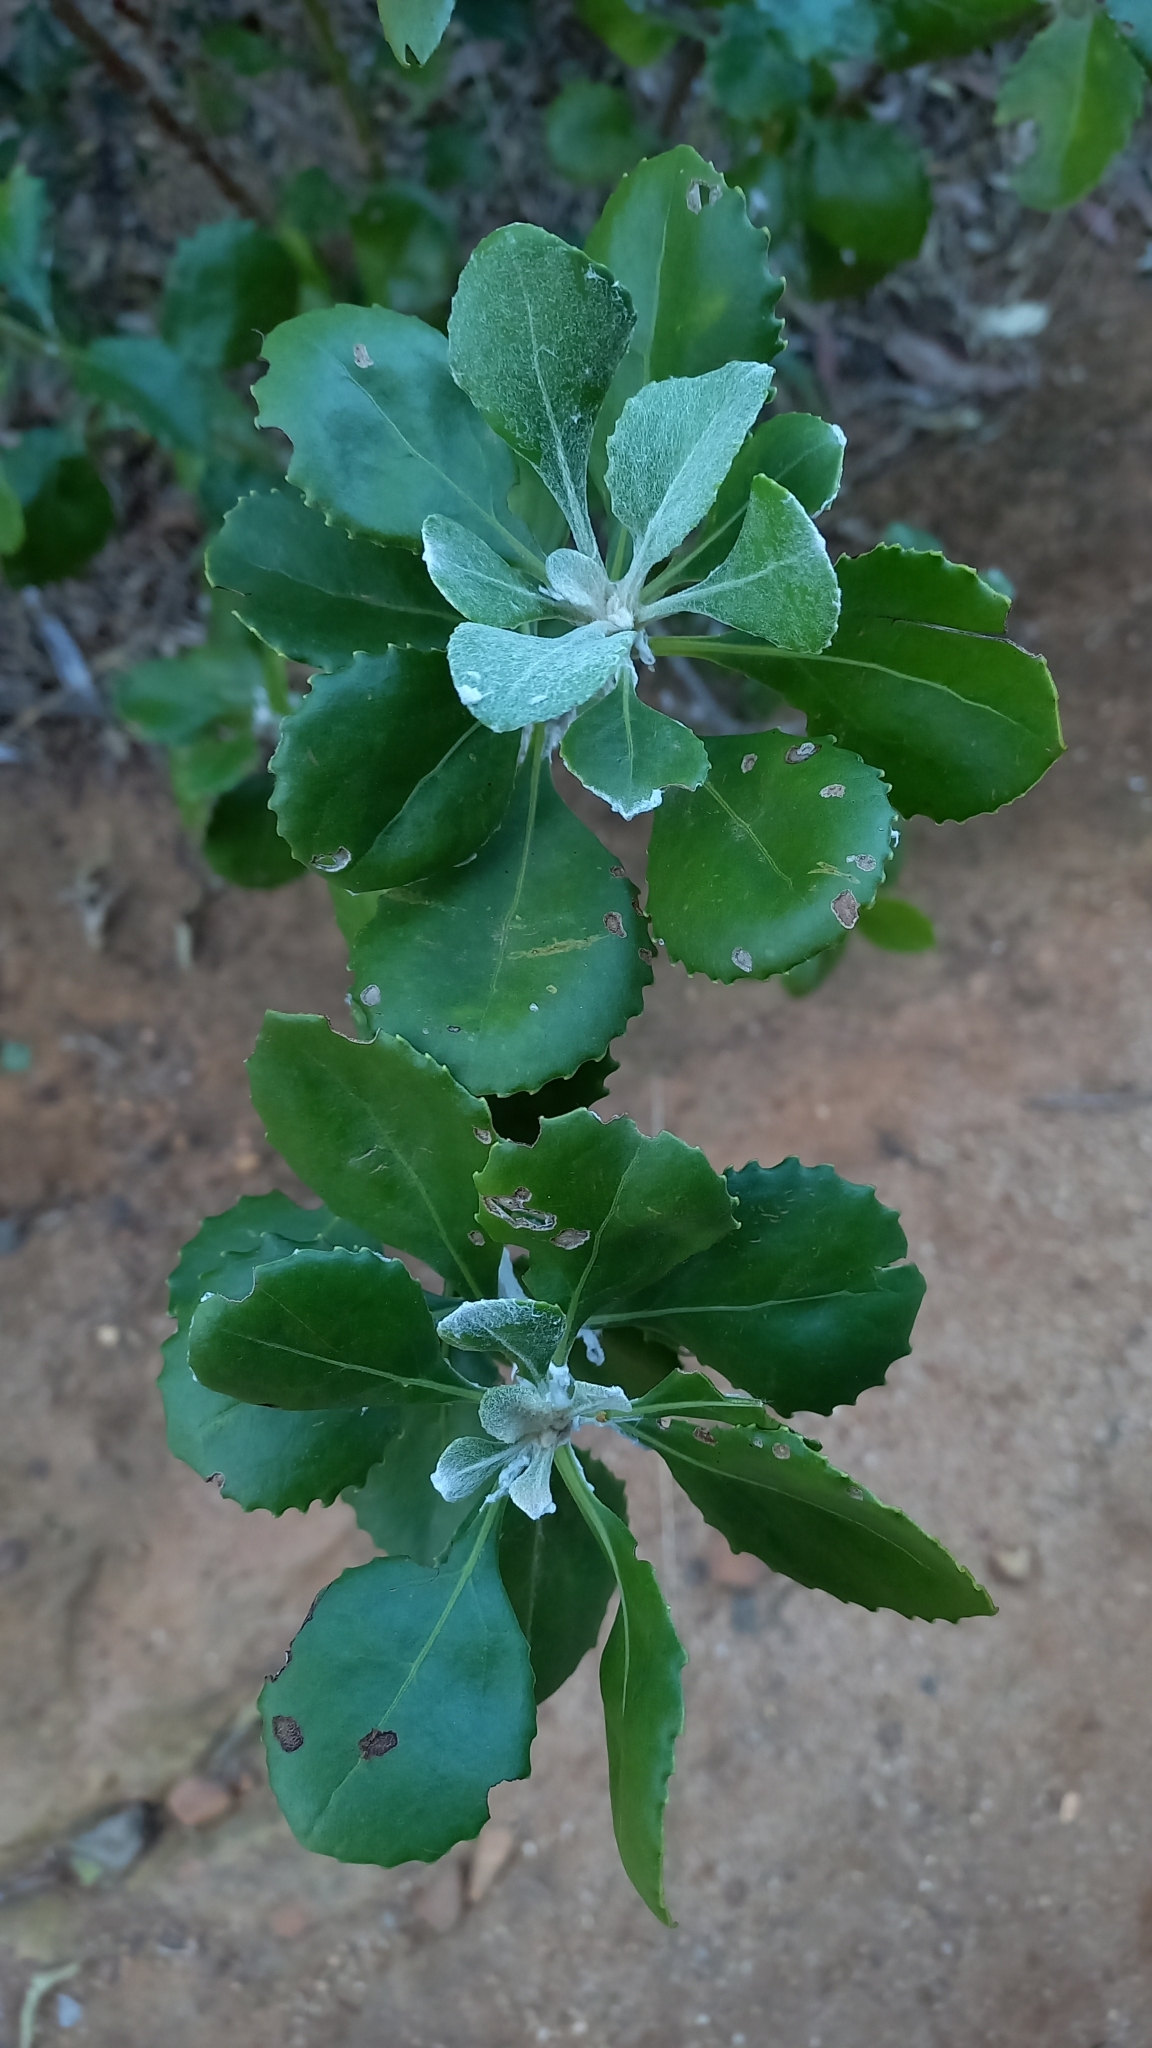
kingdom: Plantae
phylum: Tracheophyta
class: Magnoliopsida
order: Asterales
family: Asteraceae
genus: Osteospermum
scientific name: Osteospermum moniliferum
